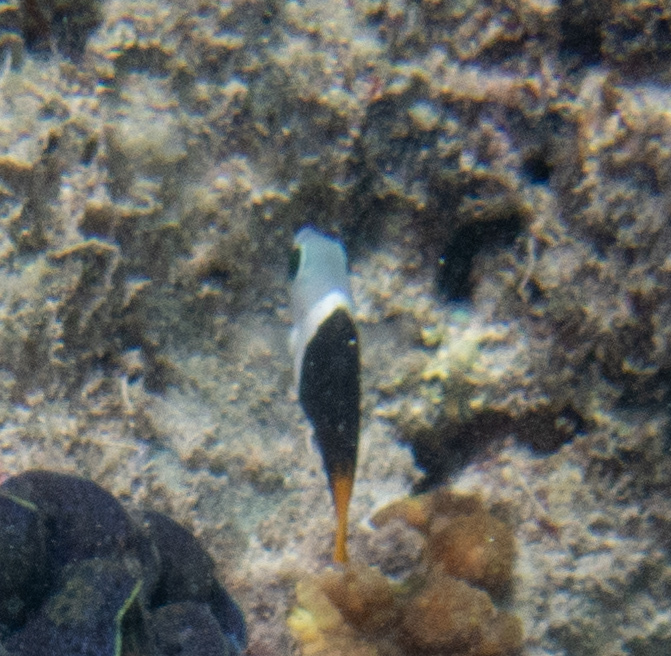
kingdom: Animalia
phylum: Chordata
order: Perciformes
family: Labridae
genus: Hemigymnus
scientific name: Hemigymnus melapterus
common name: Blackeye thicklip
